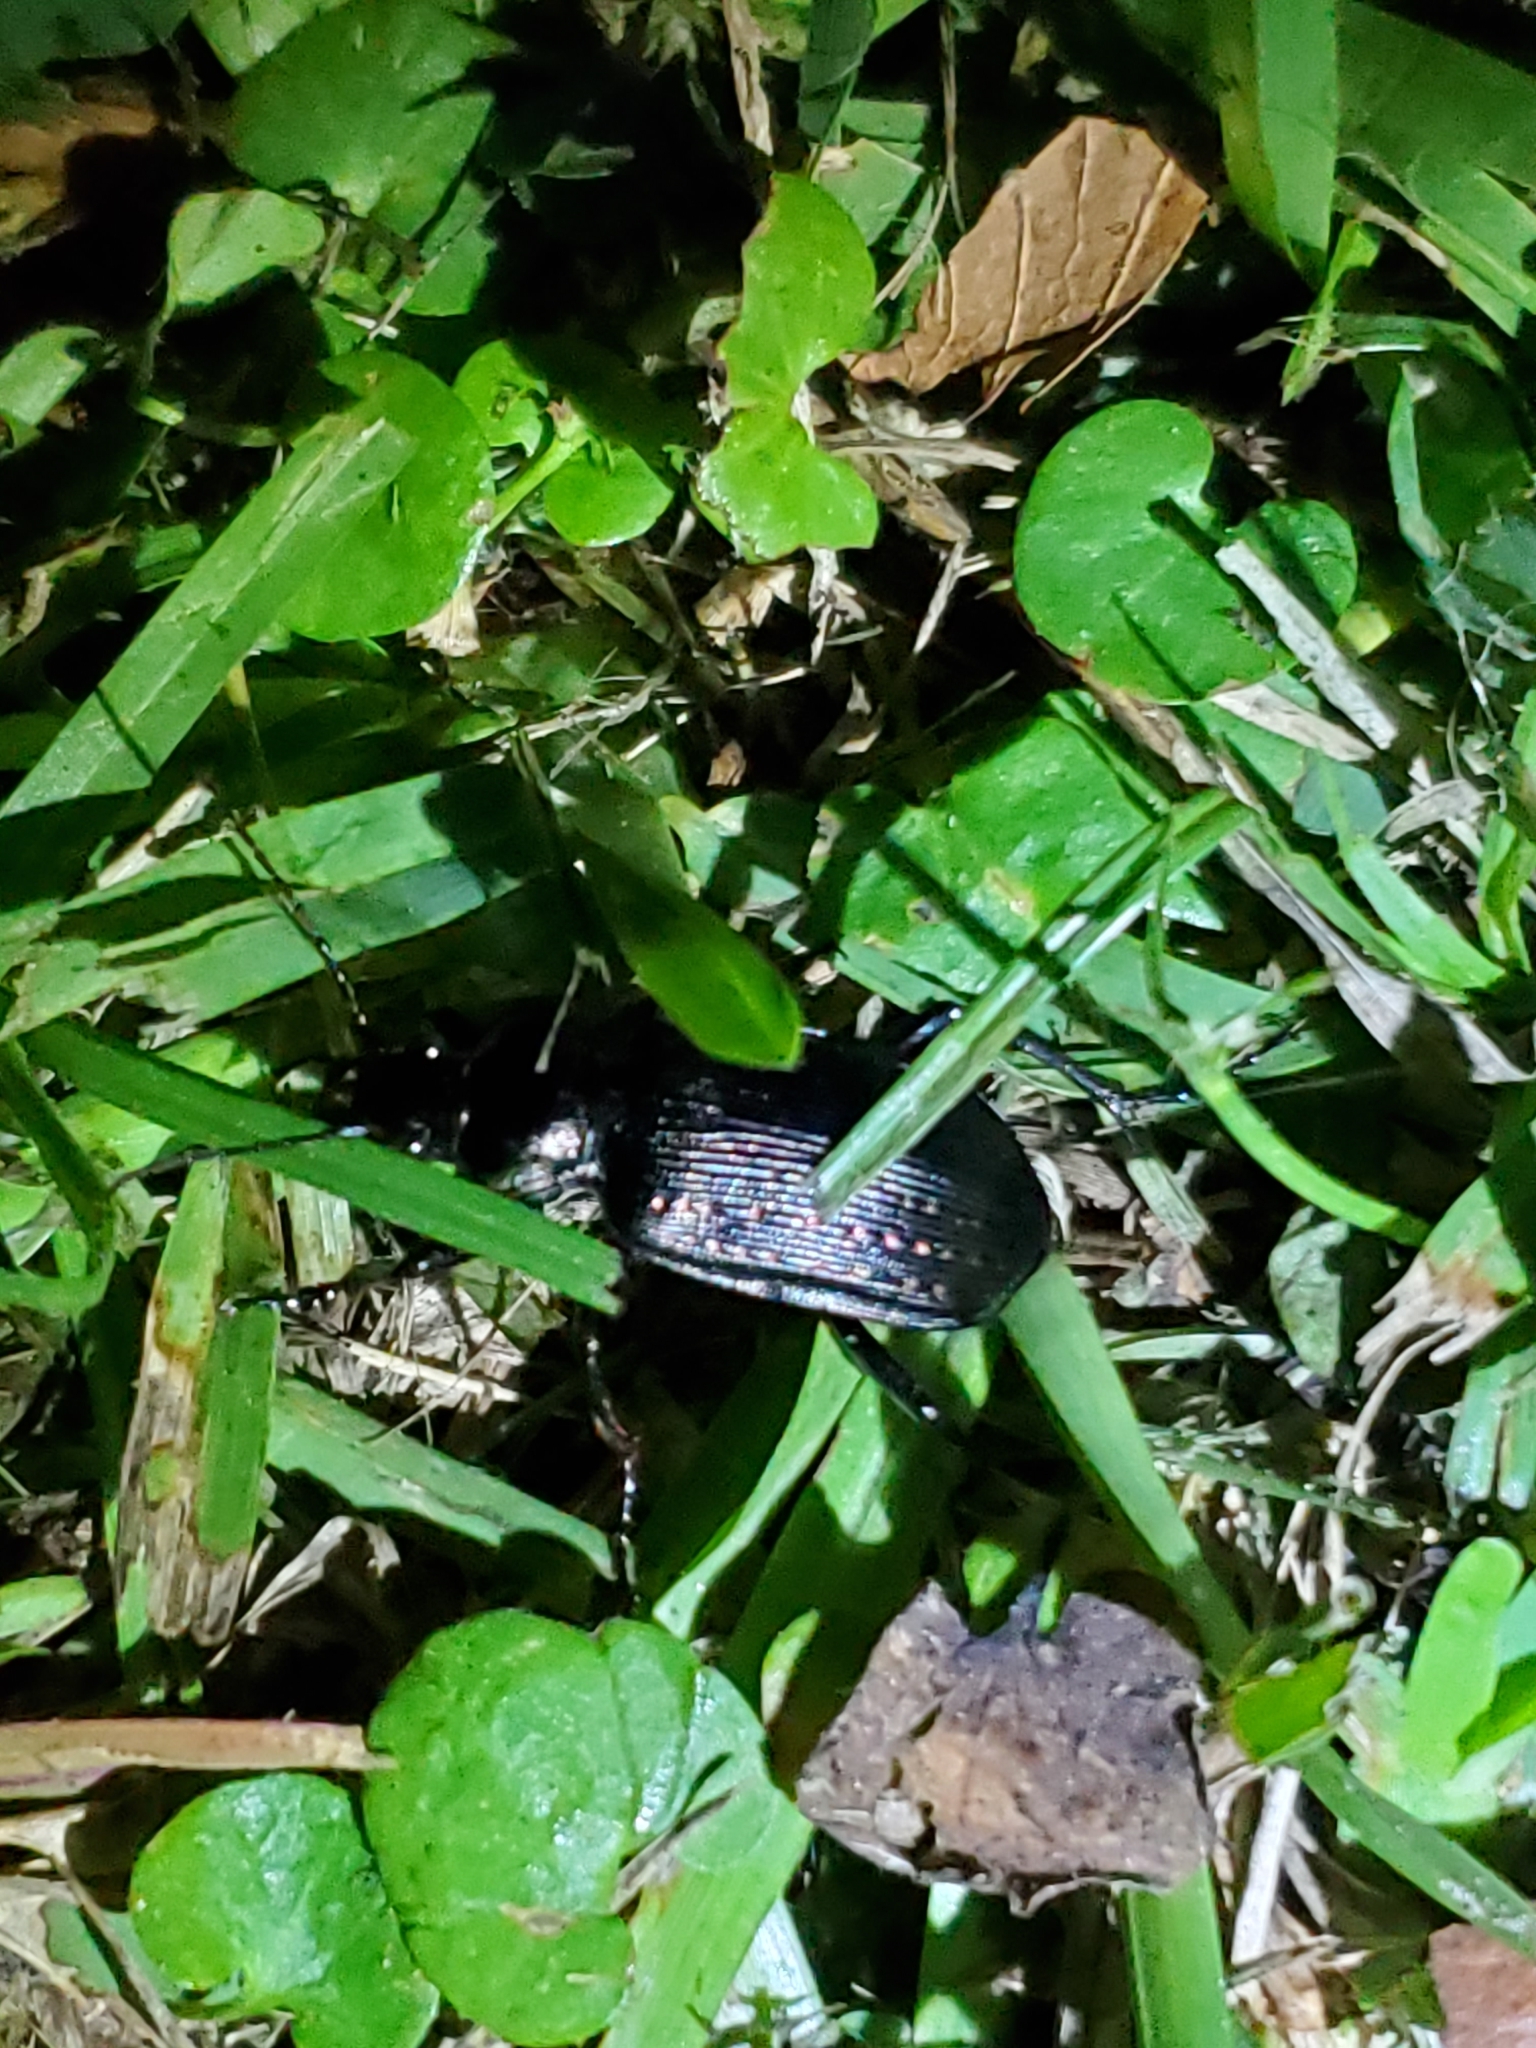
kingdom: Animalia
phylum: Arthropoda
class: Insecta
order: Coleoptera
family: Carabidae
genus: Calosoma
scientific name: Calosoma sayi
